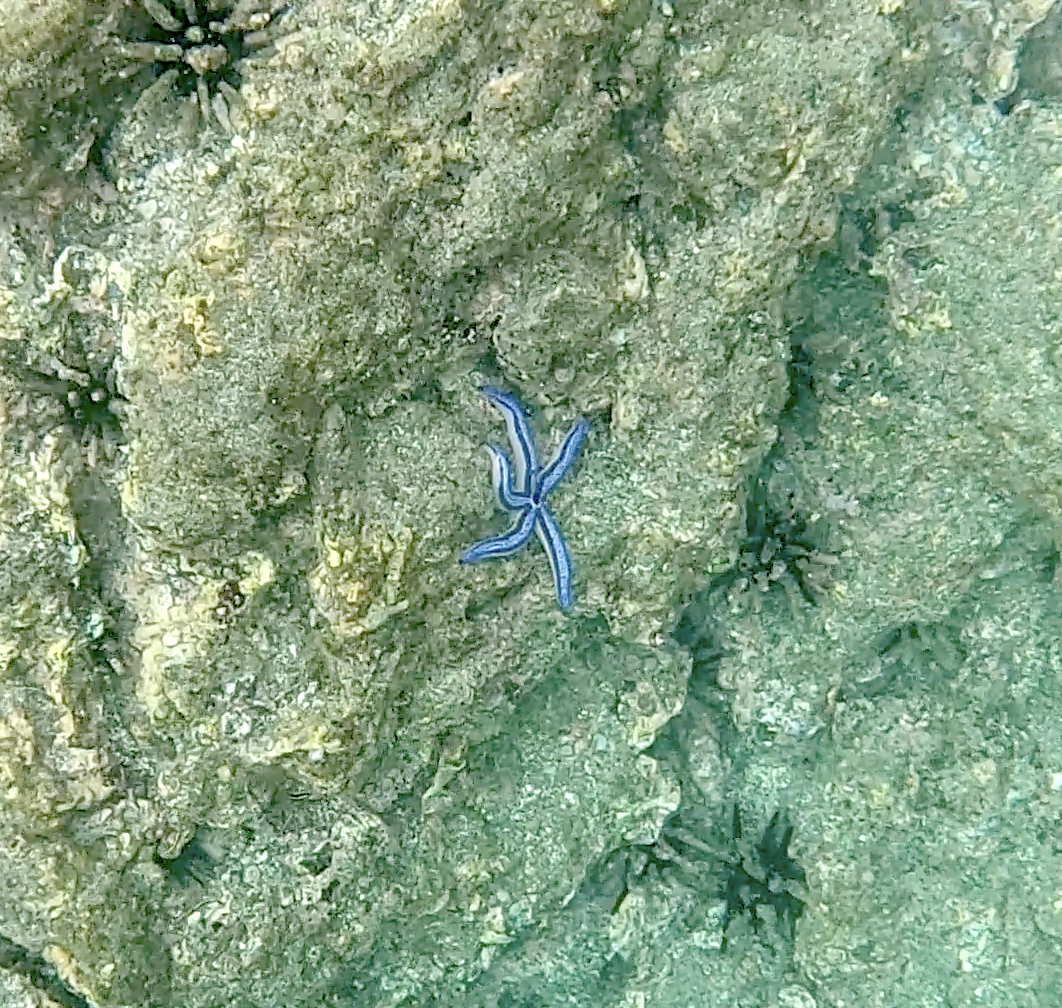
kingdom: Animalia
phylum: Echinodermata
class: Asteroidea
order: Valvatida
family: Ophidiasteridae
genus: Phataria
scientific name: Phataria unifascialis
